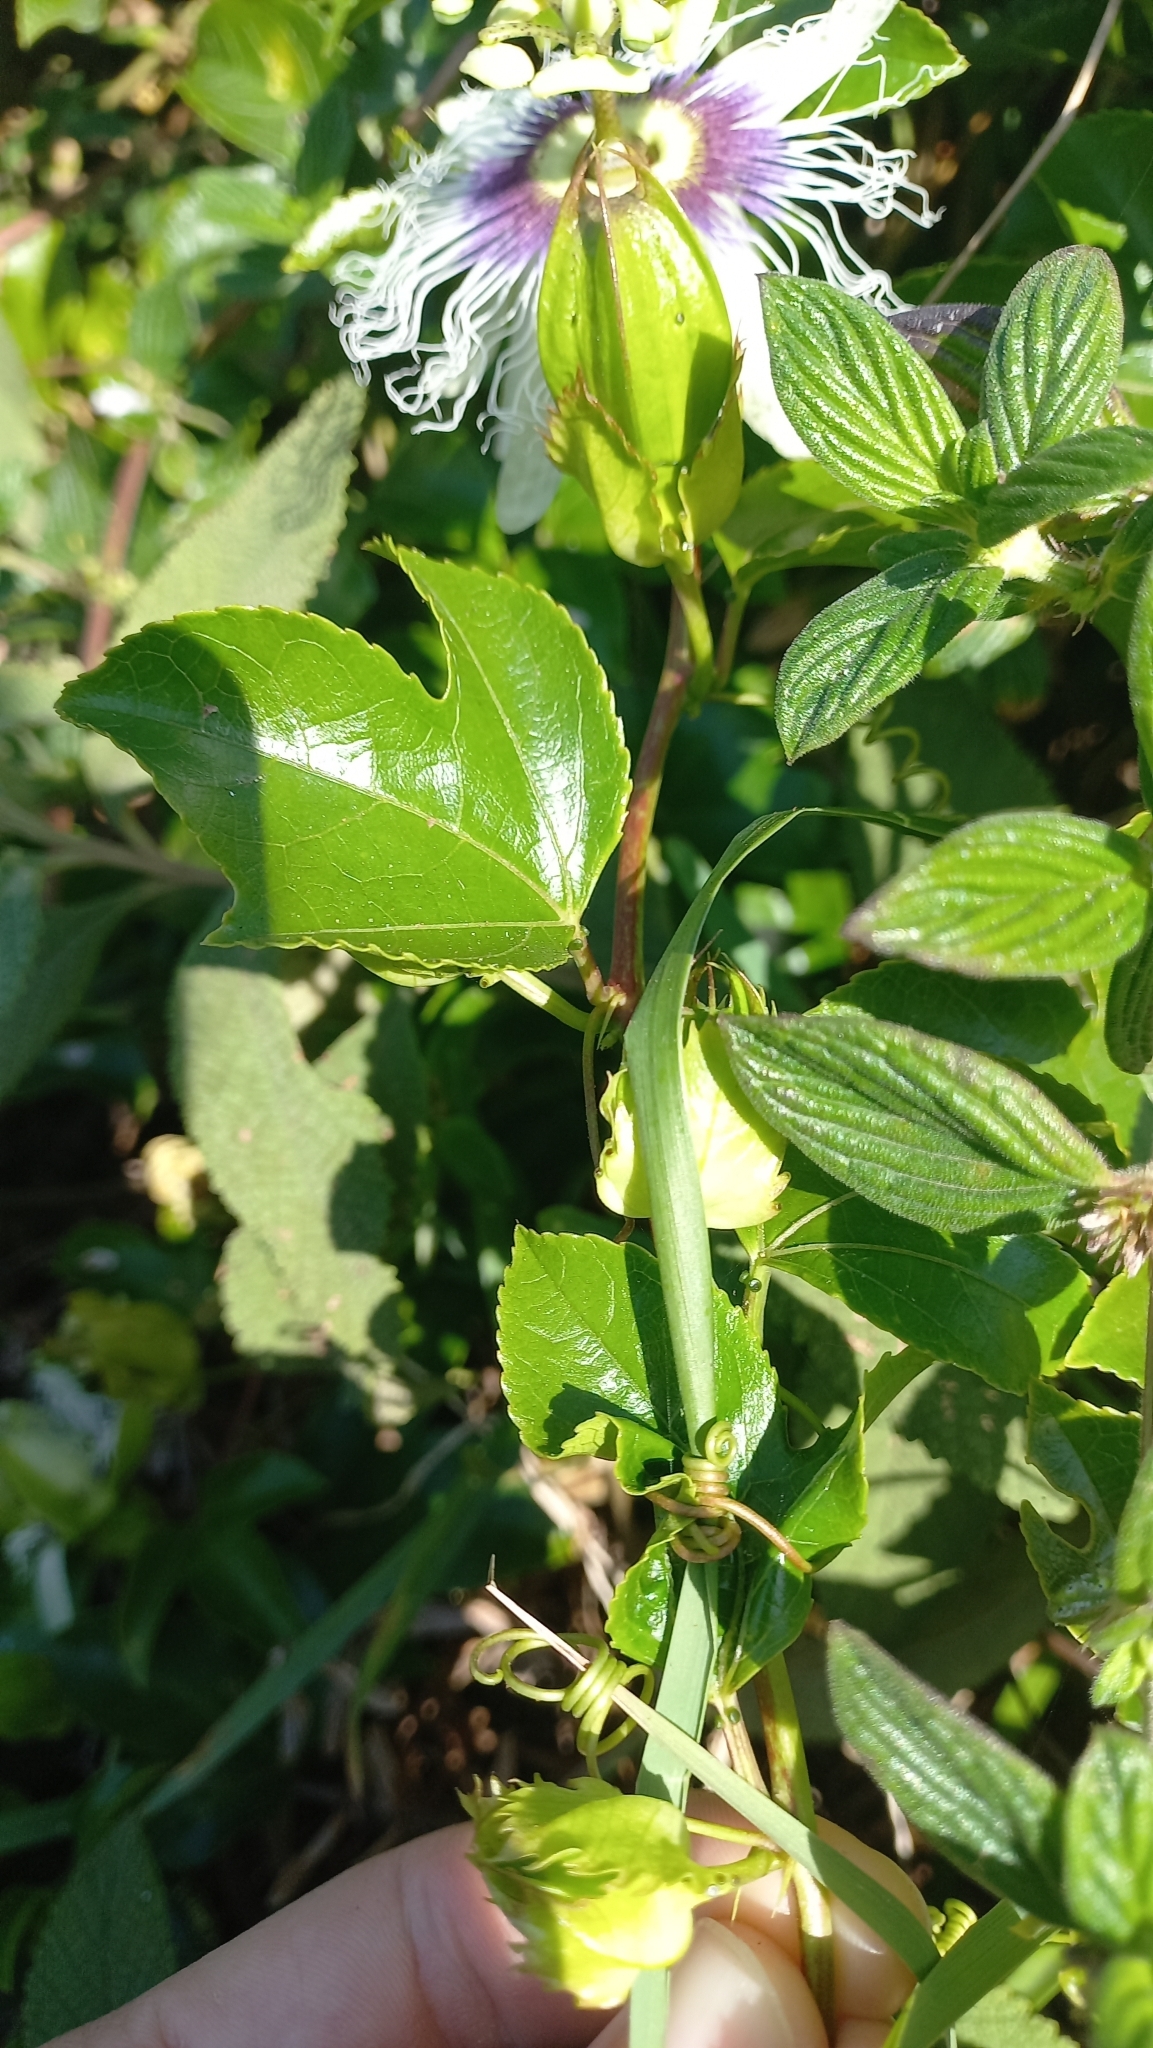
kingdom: Plantae
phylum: Tracheophyta
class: Magnoliopsida
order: Malpighiales
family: Passifloraceae
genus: Passiflora
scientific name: Passiflora edulis
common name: Purple granadilla
